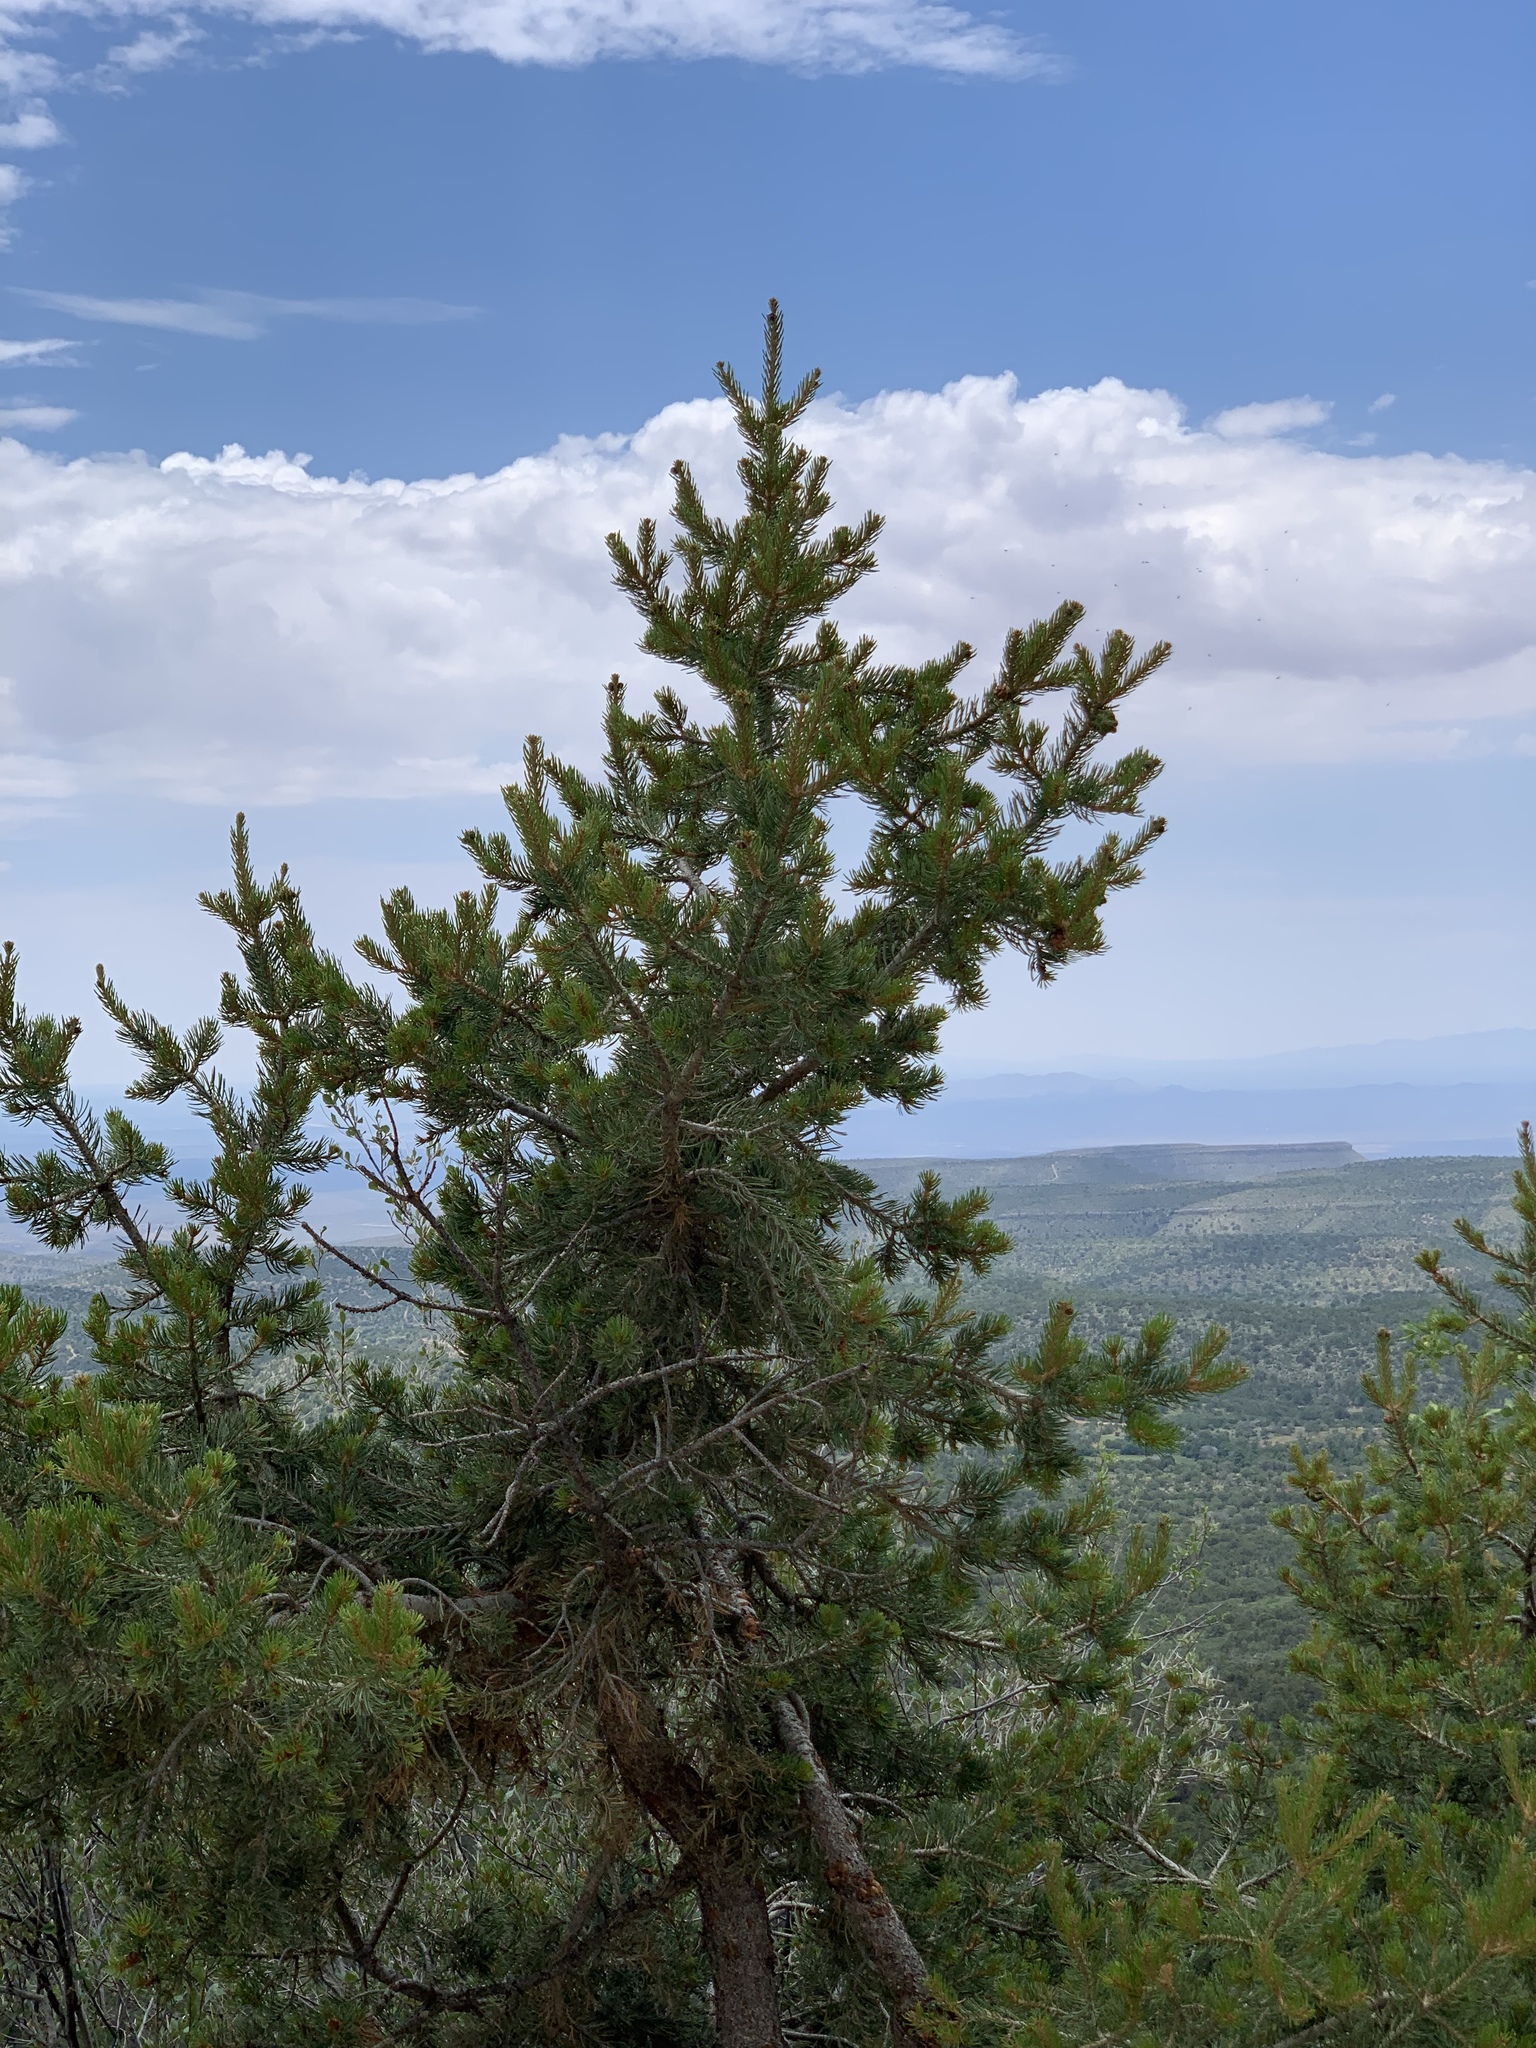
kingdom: Plantae
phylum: Tracheophyta
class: Pinopsida
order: Pinales
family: Pinaceae
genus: Pinus
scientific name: Pinus edulis
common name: Colorado pinyon
